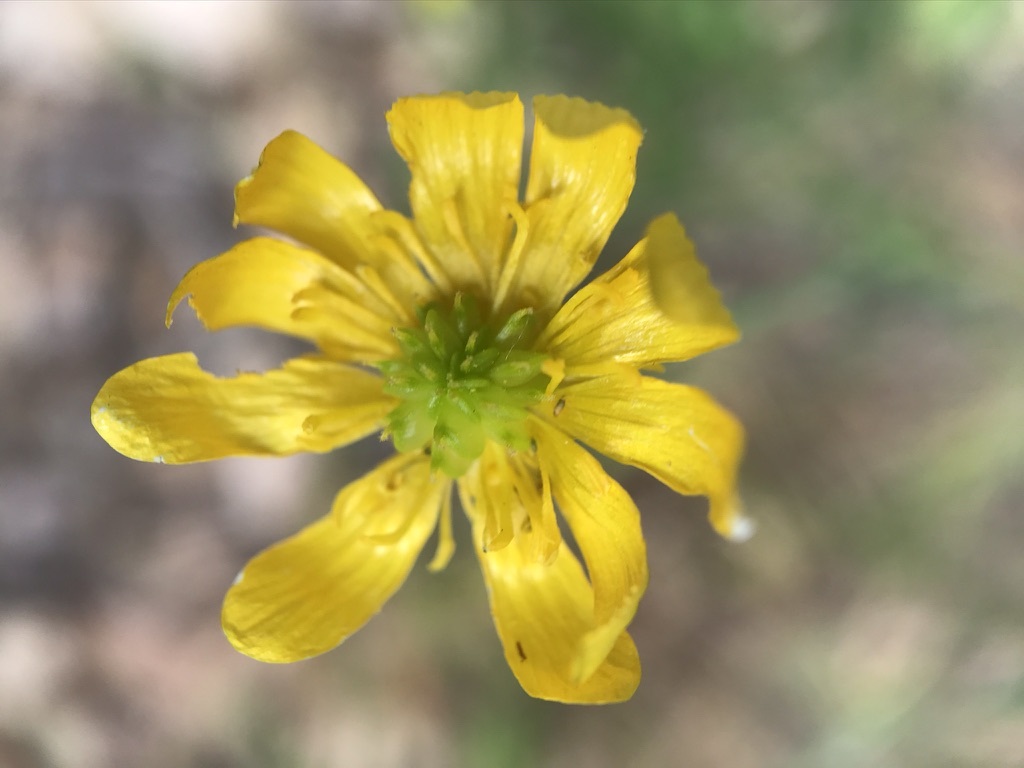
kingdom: Plantae
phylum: Tracheophyta
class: Magnoliopsida
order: Ranunculales
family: Ranunculaceae
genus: Ranunculus
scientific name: Ranunculus californicus
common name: California buttercup
